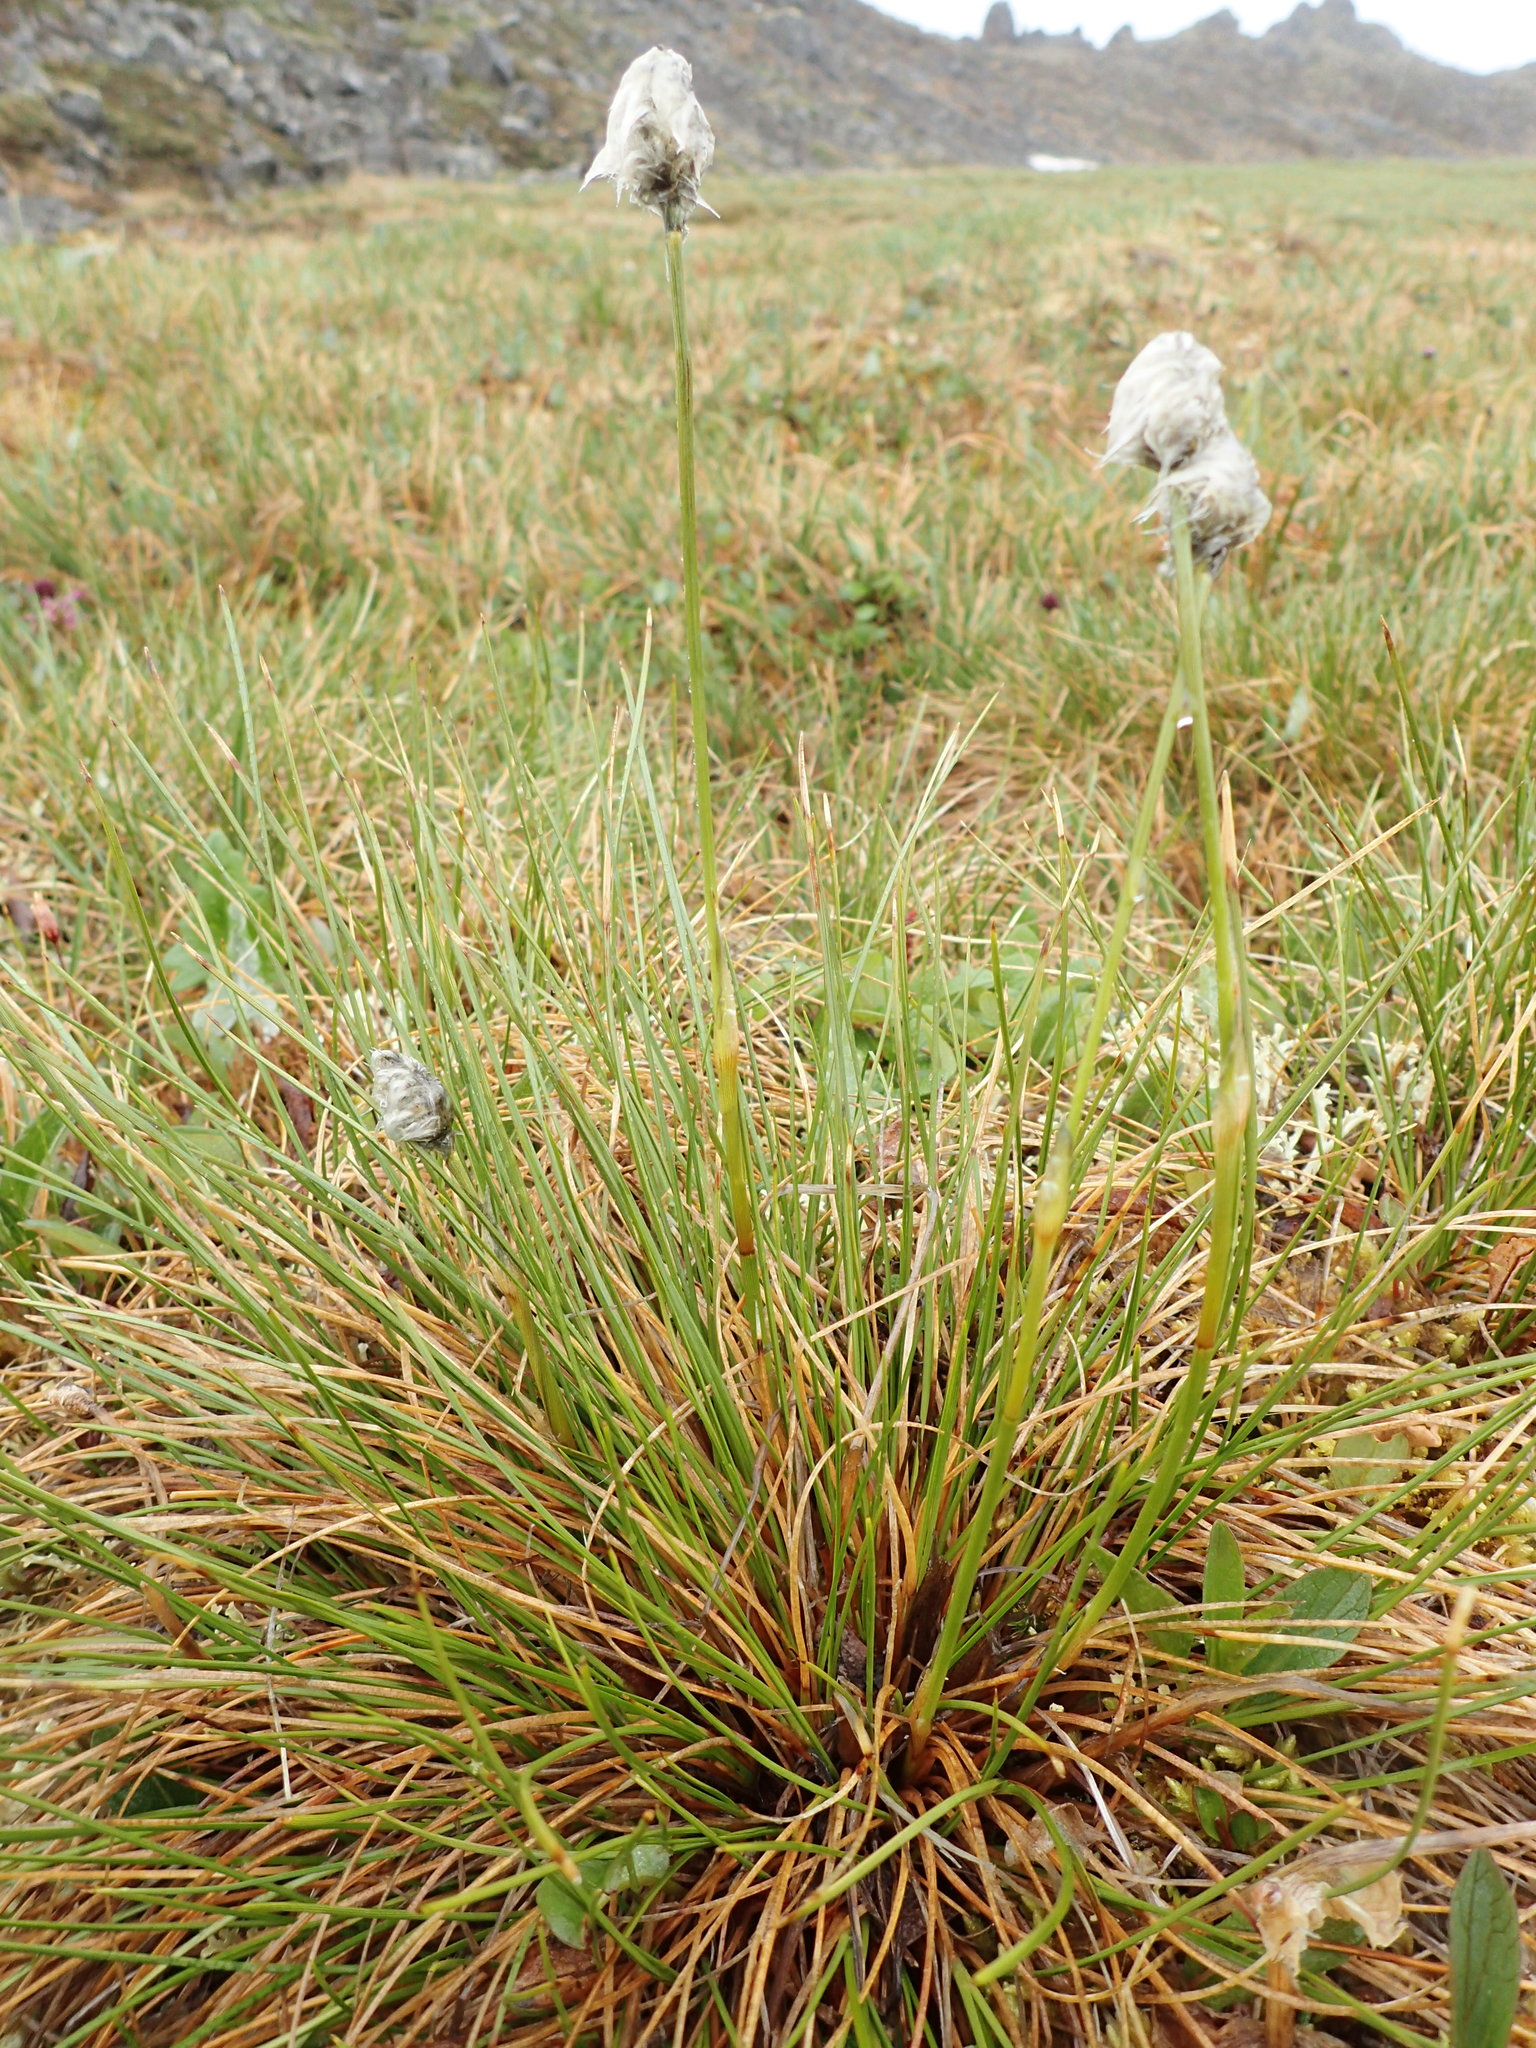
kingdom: Plantae
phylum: Tracheophyta
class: Liliopsida
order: Poales
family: Cyperaceae
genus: Eriophorum
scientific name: Eriophorum vaginatum
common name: Hare's-tail cottongrass
